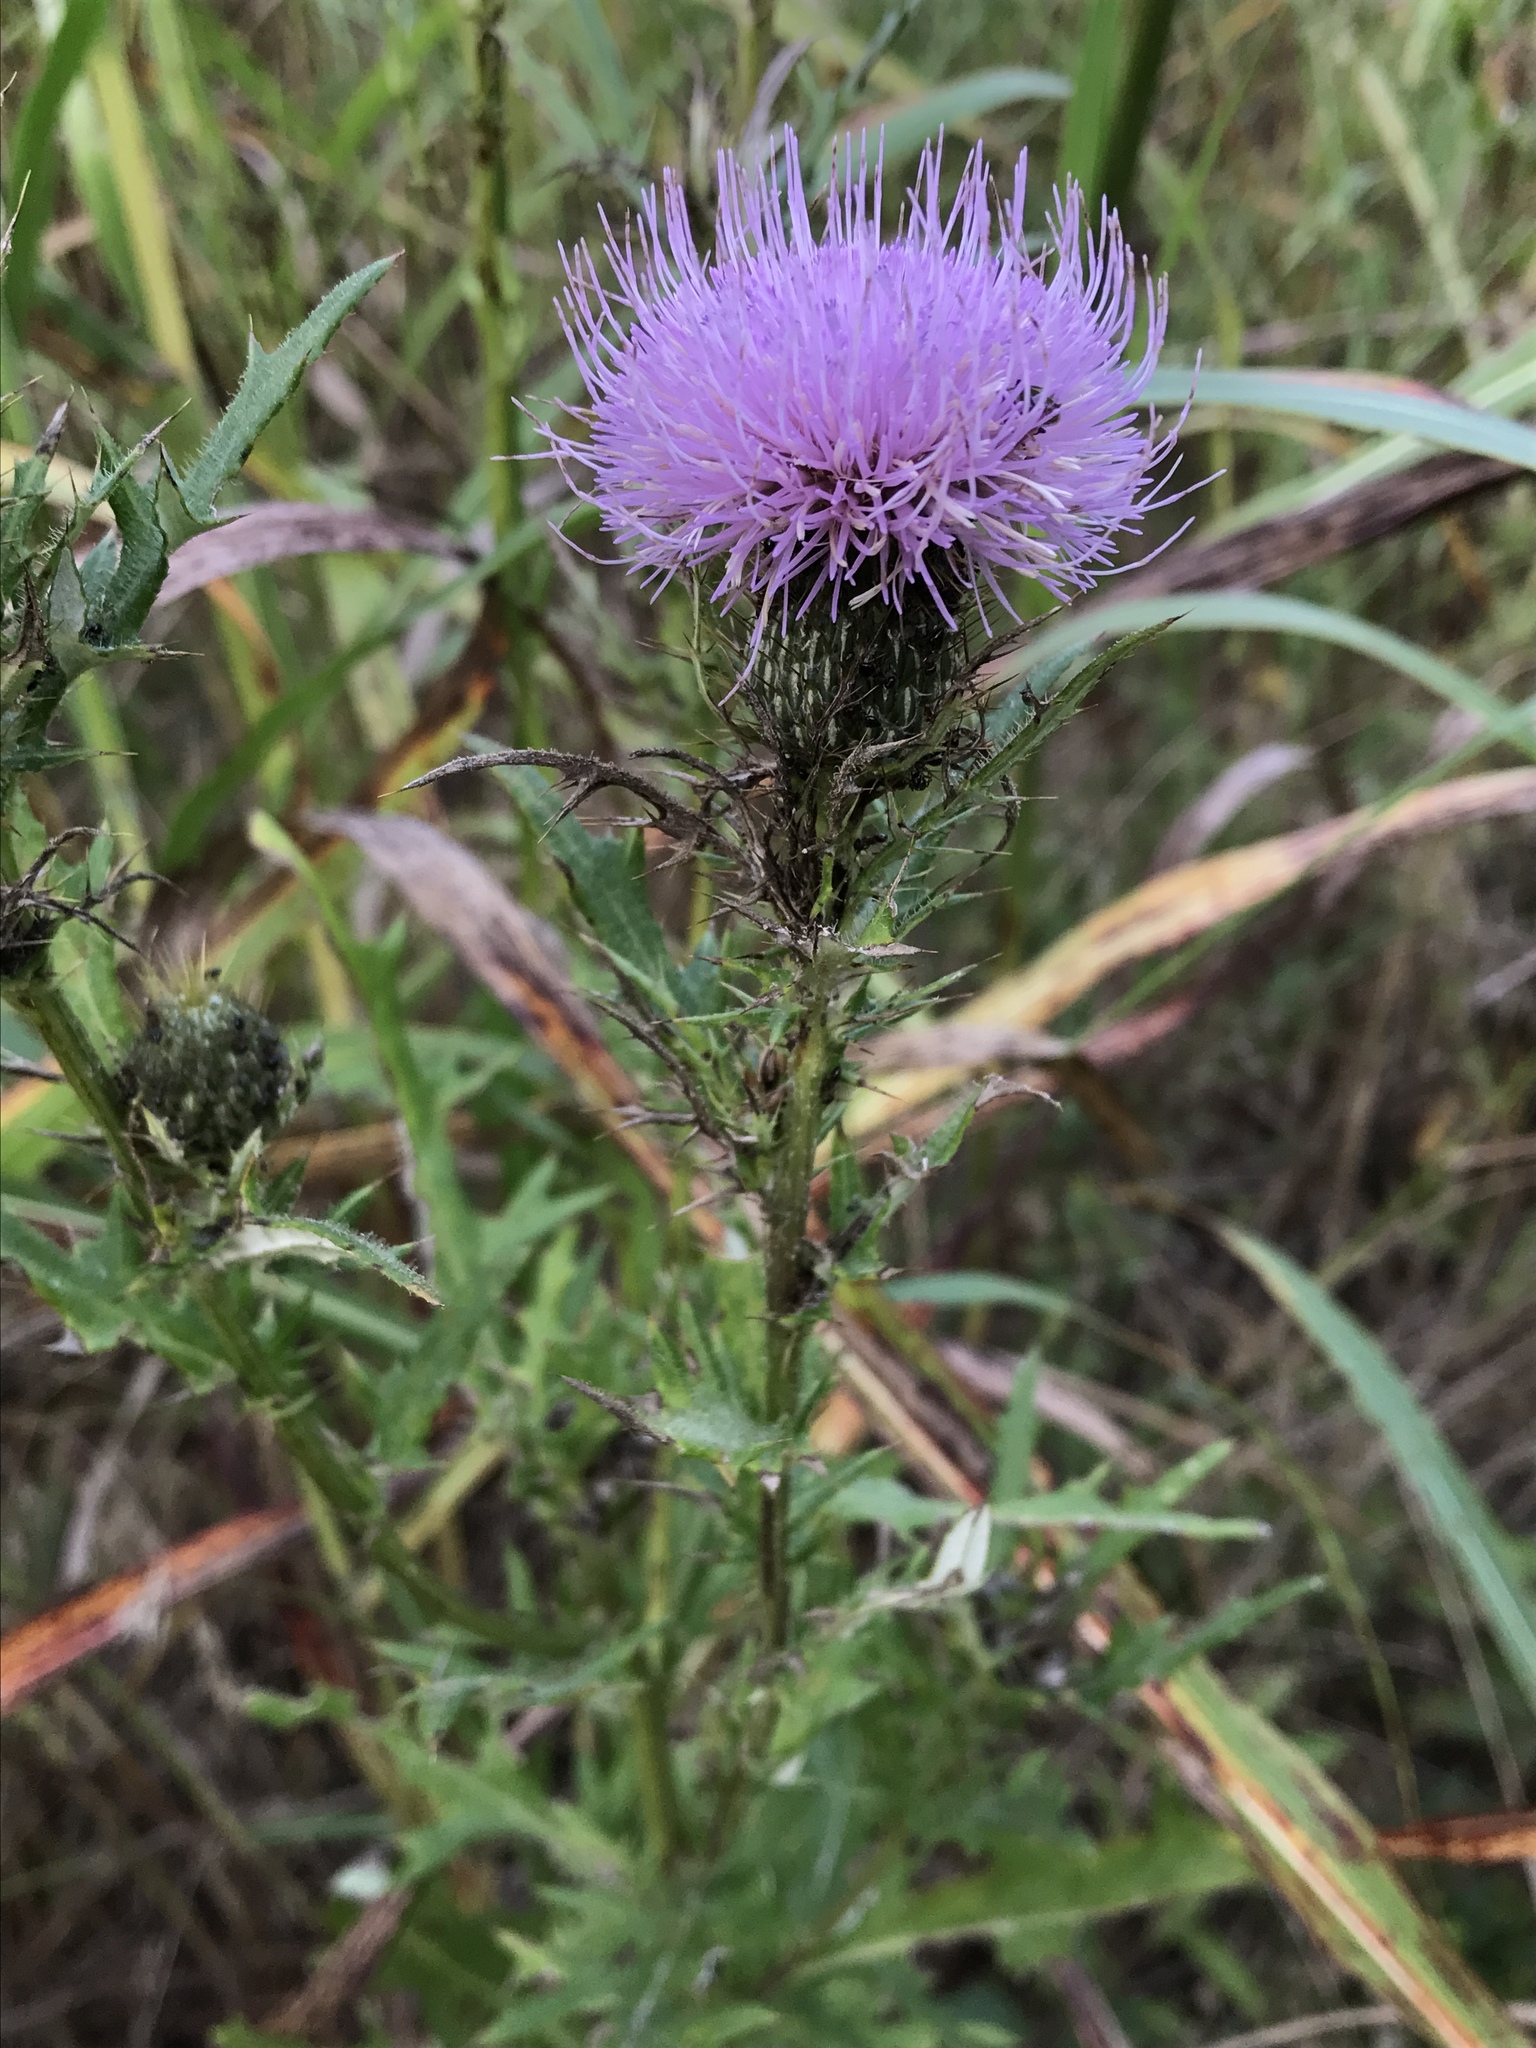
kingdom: Plantae
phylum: Tracheophyta
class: Magnoliopsida
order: Asterales
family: Asteraceae
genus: Cirsium
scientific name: Cirsium discolor
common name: Field thistle
